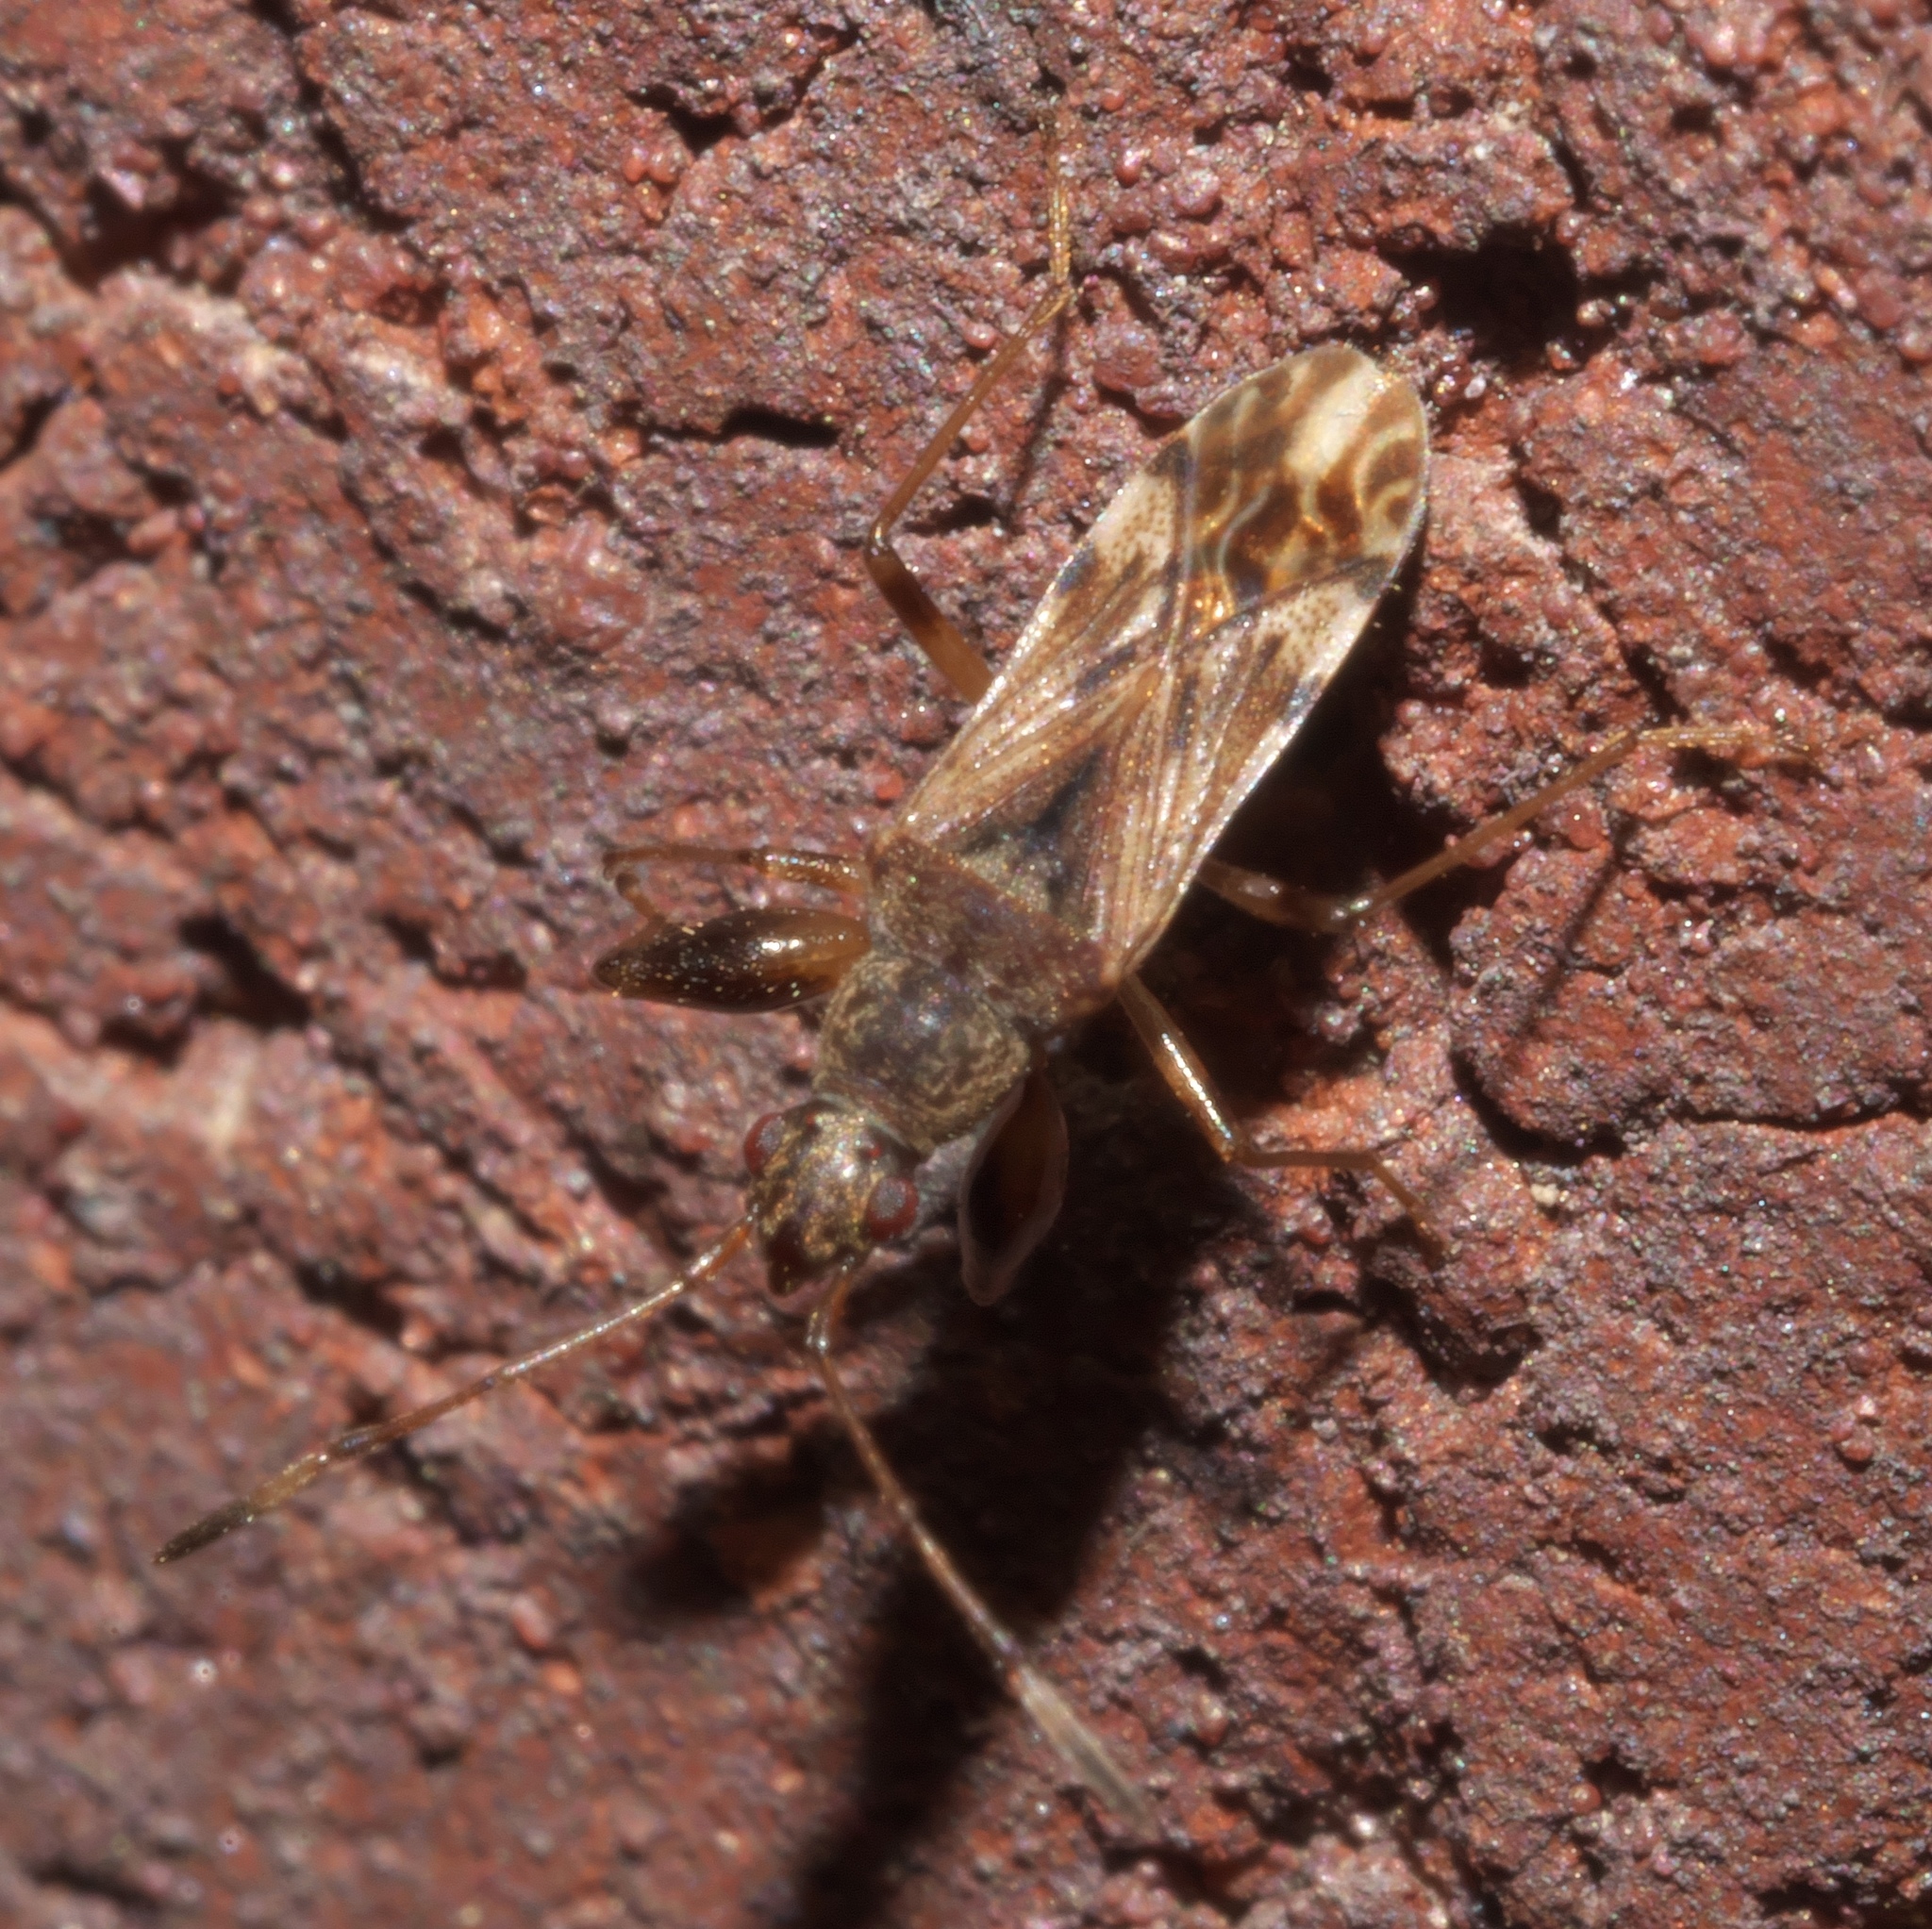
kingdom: Animalia
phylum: Arthropoda
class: Insecta
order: Hemiptera
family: Rhyparochromidae
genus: Neopamera
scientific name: Neopamera albocincta
